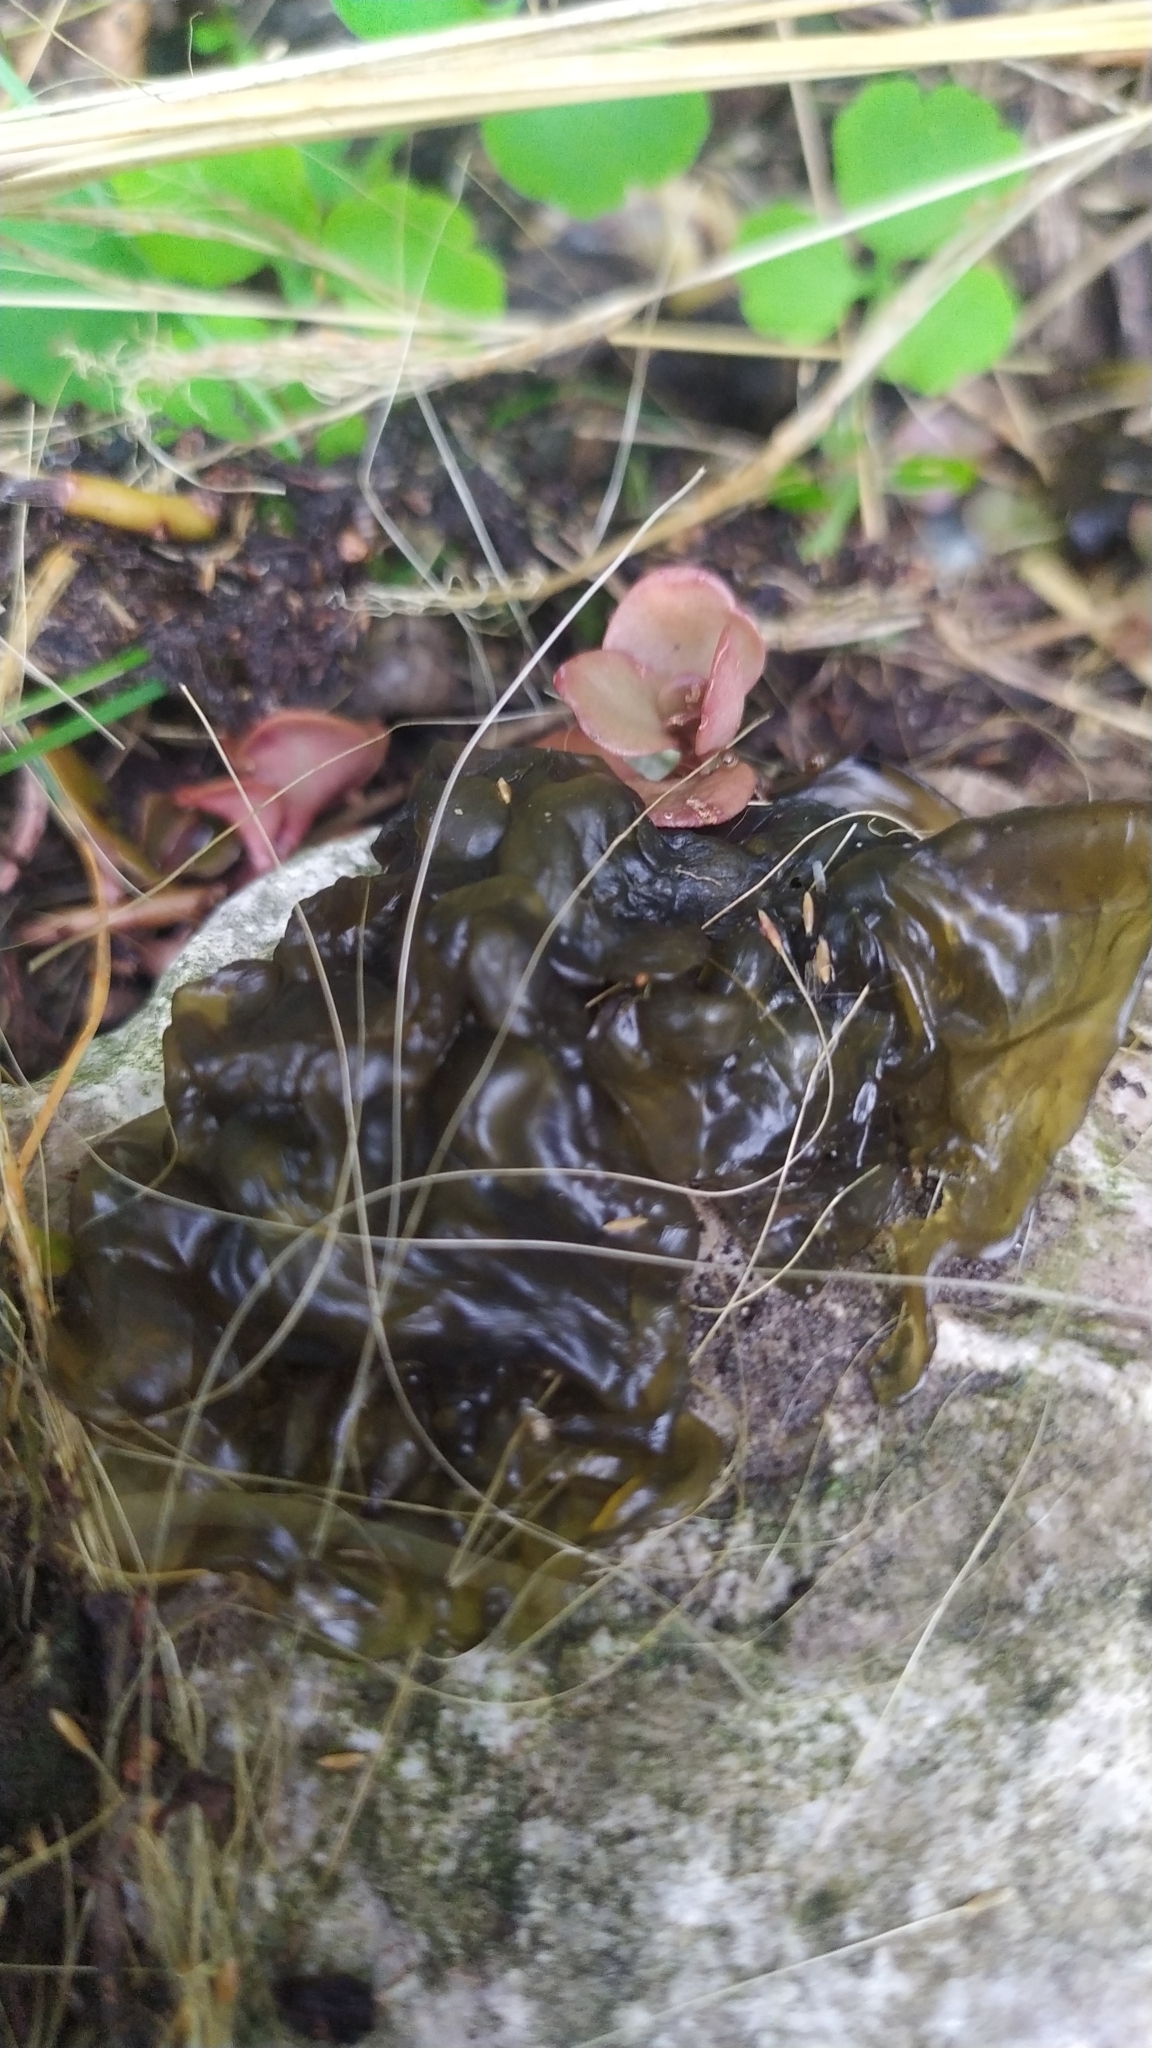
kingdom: Bacteria
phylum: Cyanobacteria
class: Cyanobacteriia
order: Cyanobacteriales
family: Nostocaceae
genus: Nostoc
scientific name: Nostoc commune
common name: Star jelly
